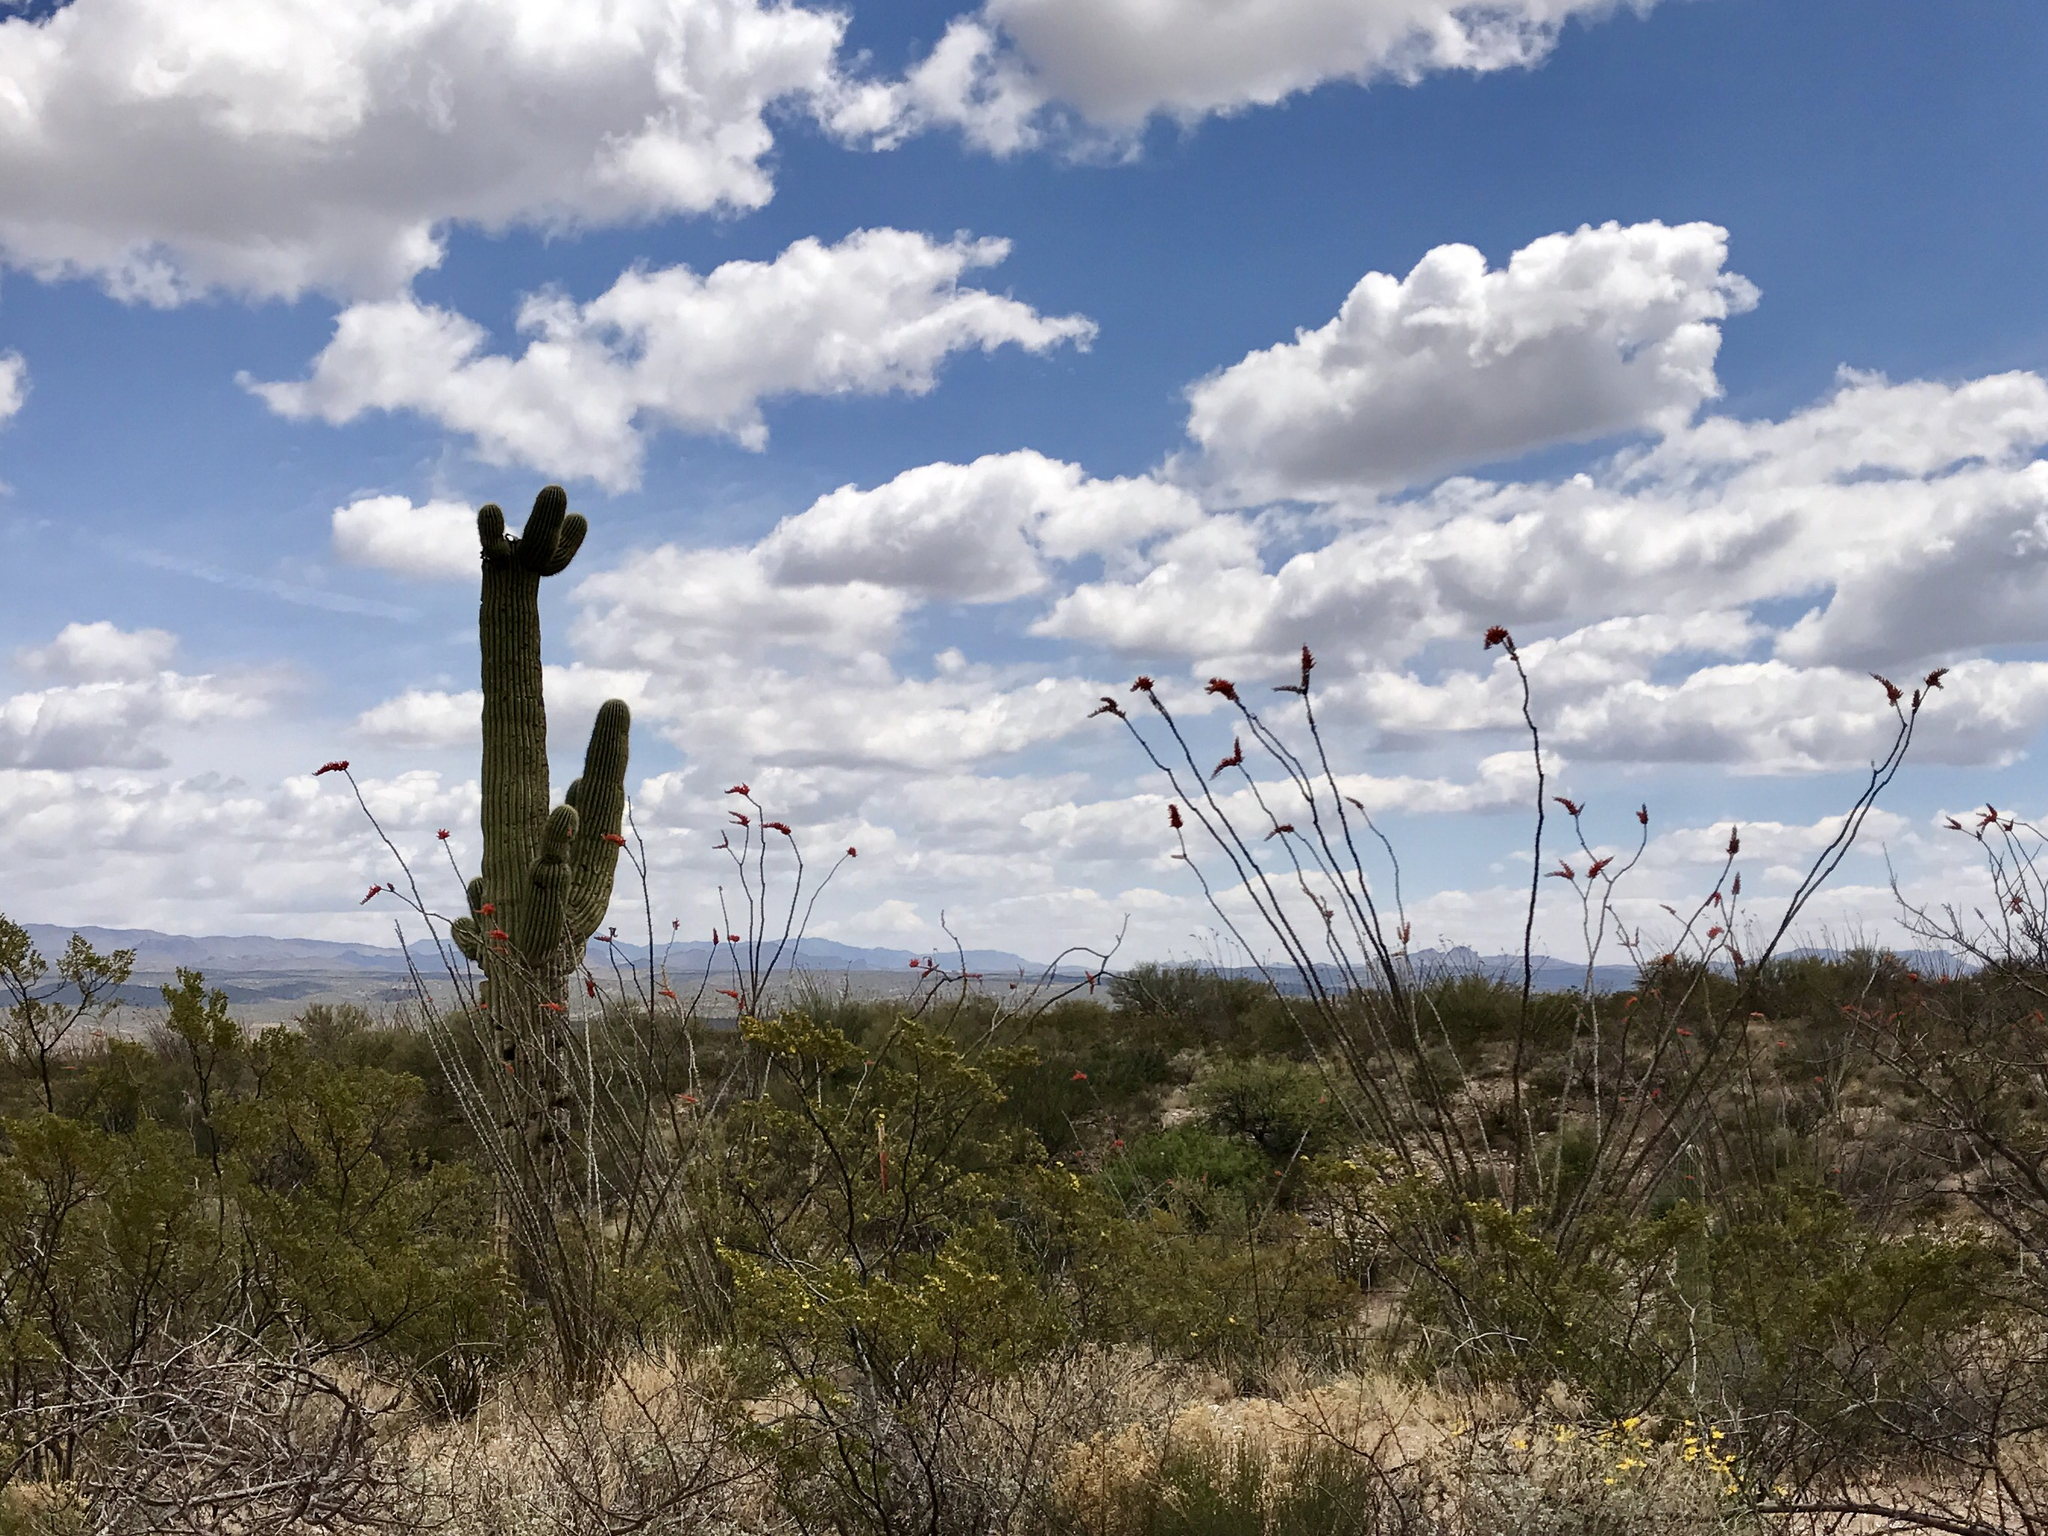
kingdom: Plantae
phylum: Tracheophyta
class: Magnoliopsida
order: Ericales
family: Fouquieriaceae
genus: Fouquieria
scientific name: Fouquieria splendens
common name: Vine-cactus
